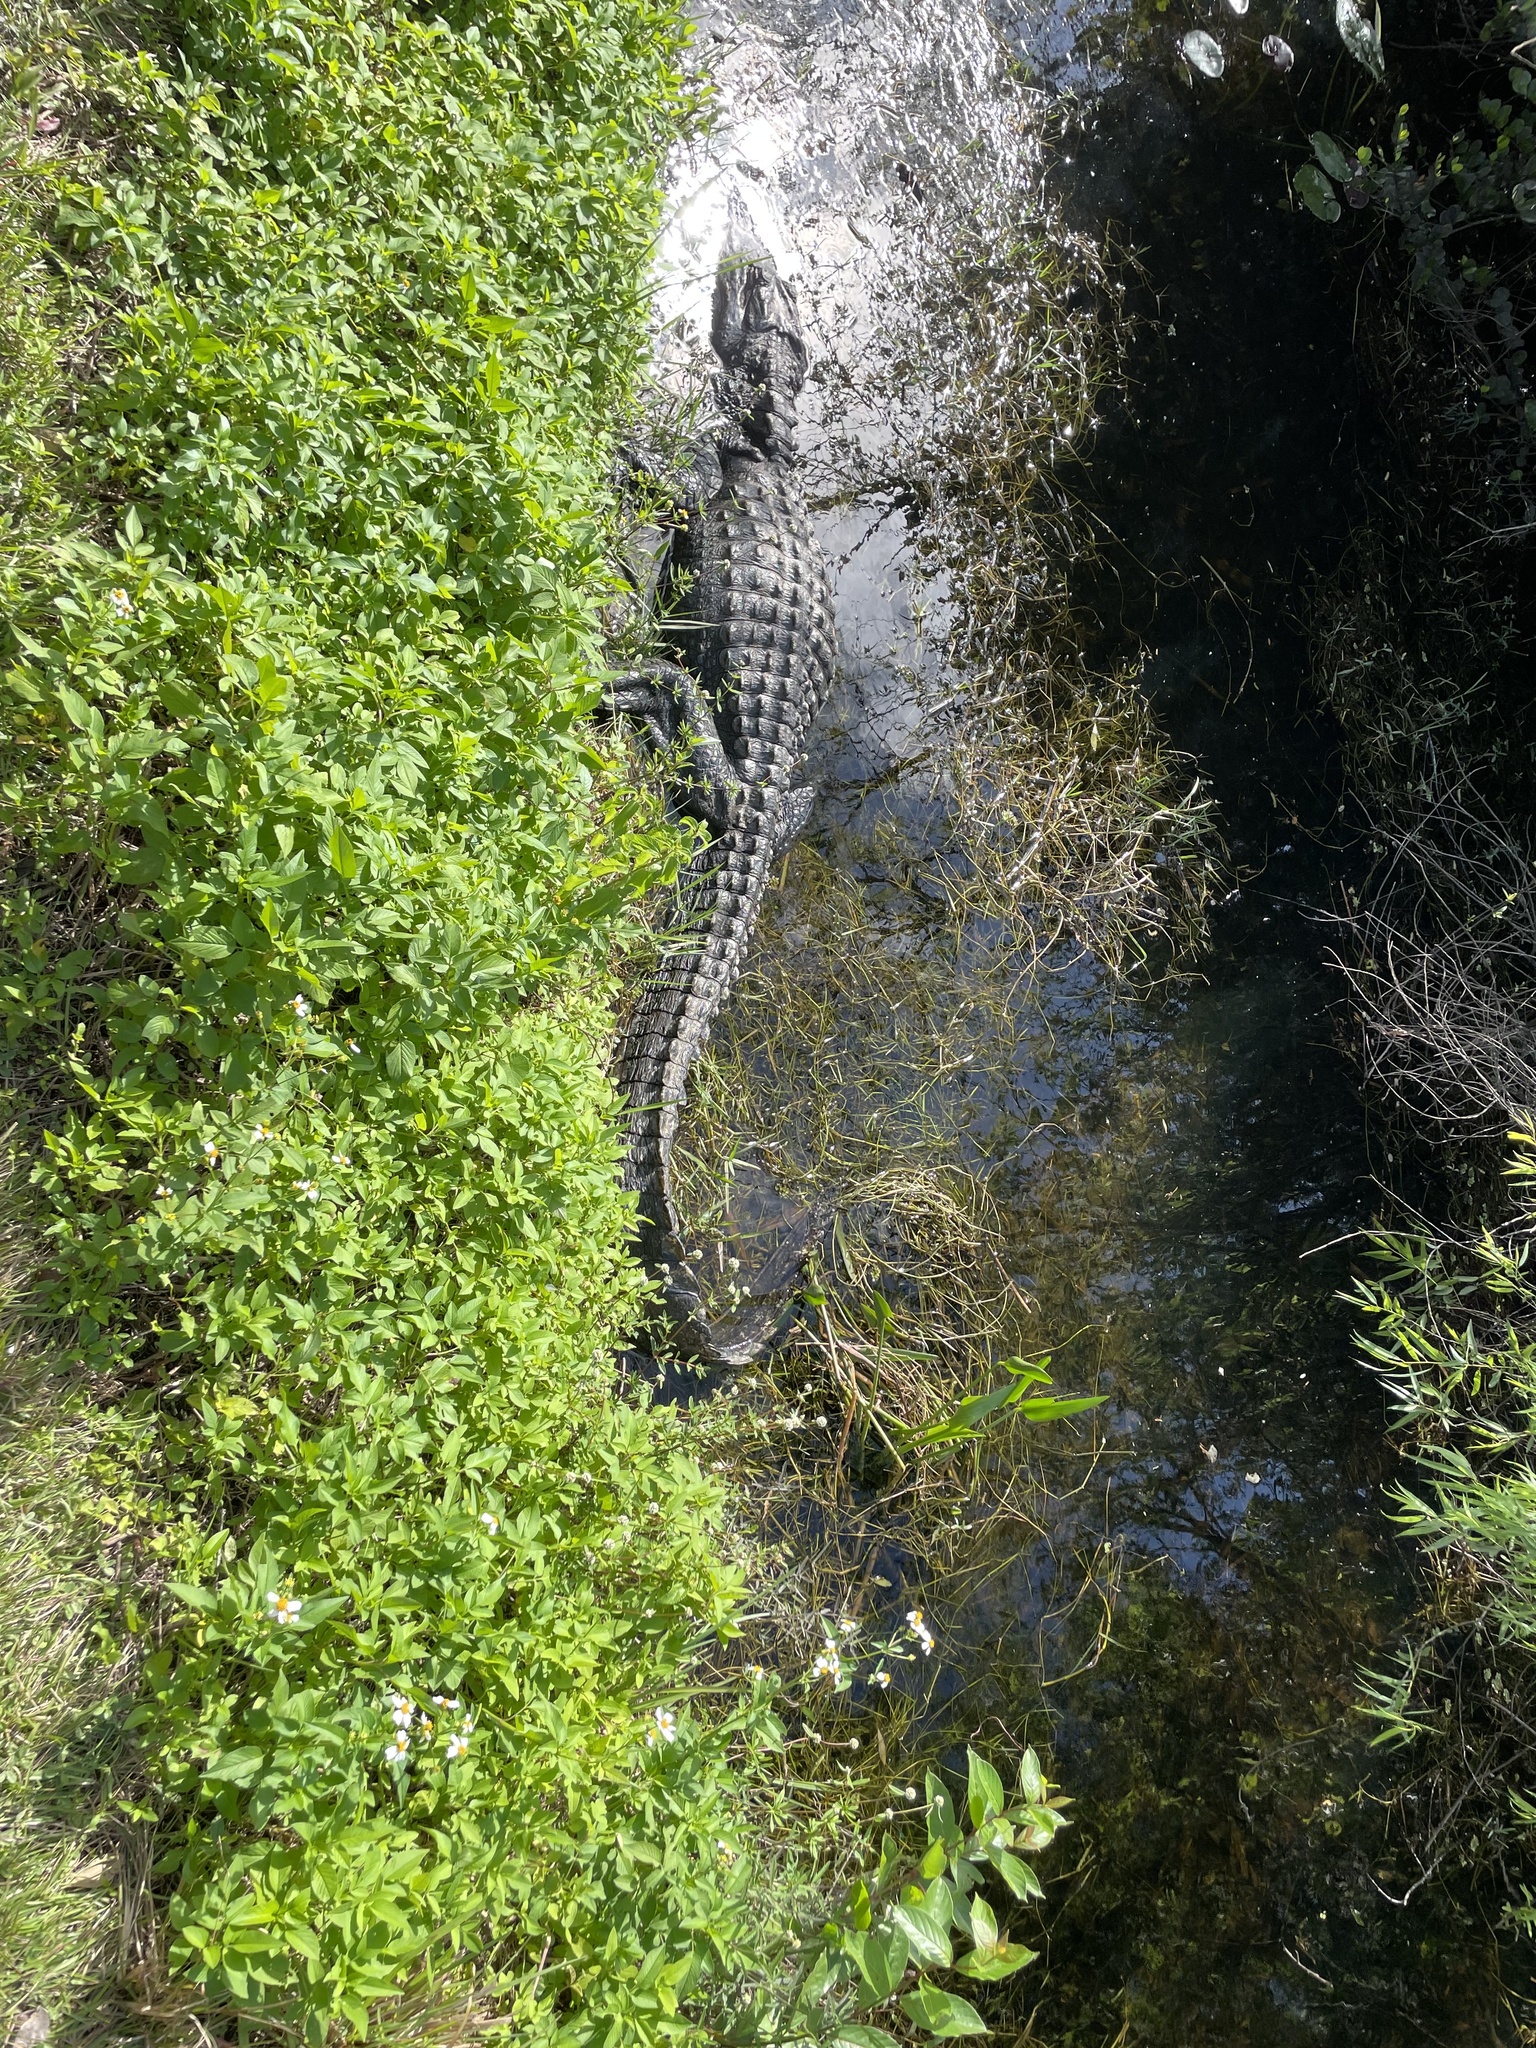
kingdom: Animalia
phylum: Chordata
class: Crocodylia
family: Alligatoridae
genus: Alligator
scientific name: Alligator mississippiensis
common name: American alligator
